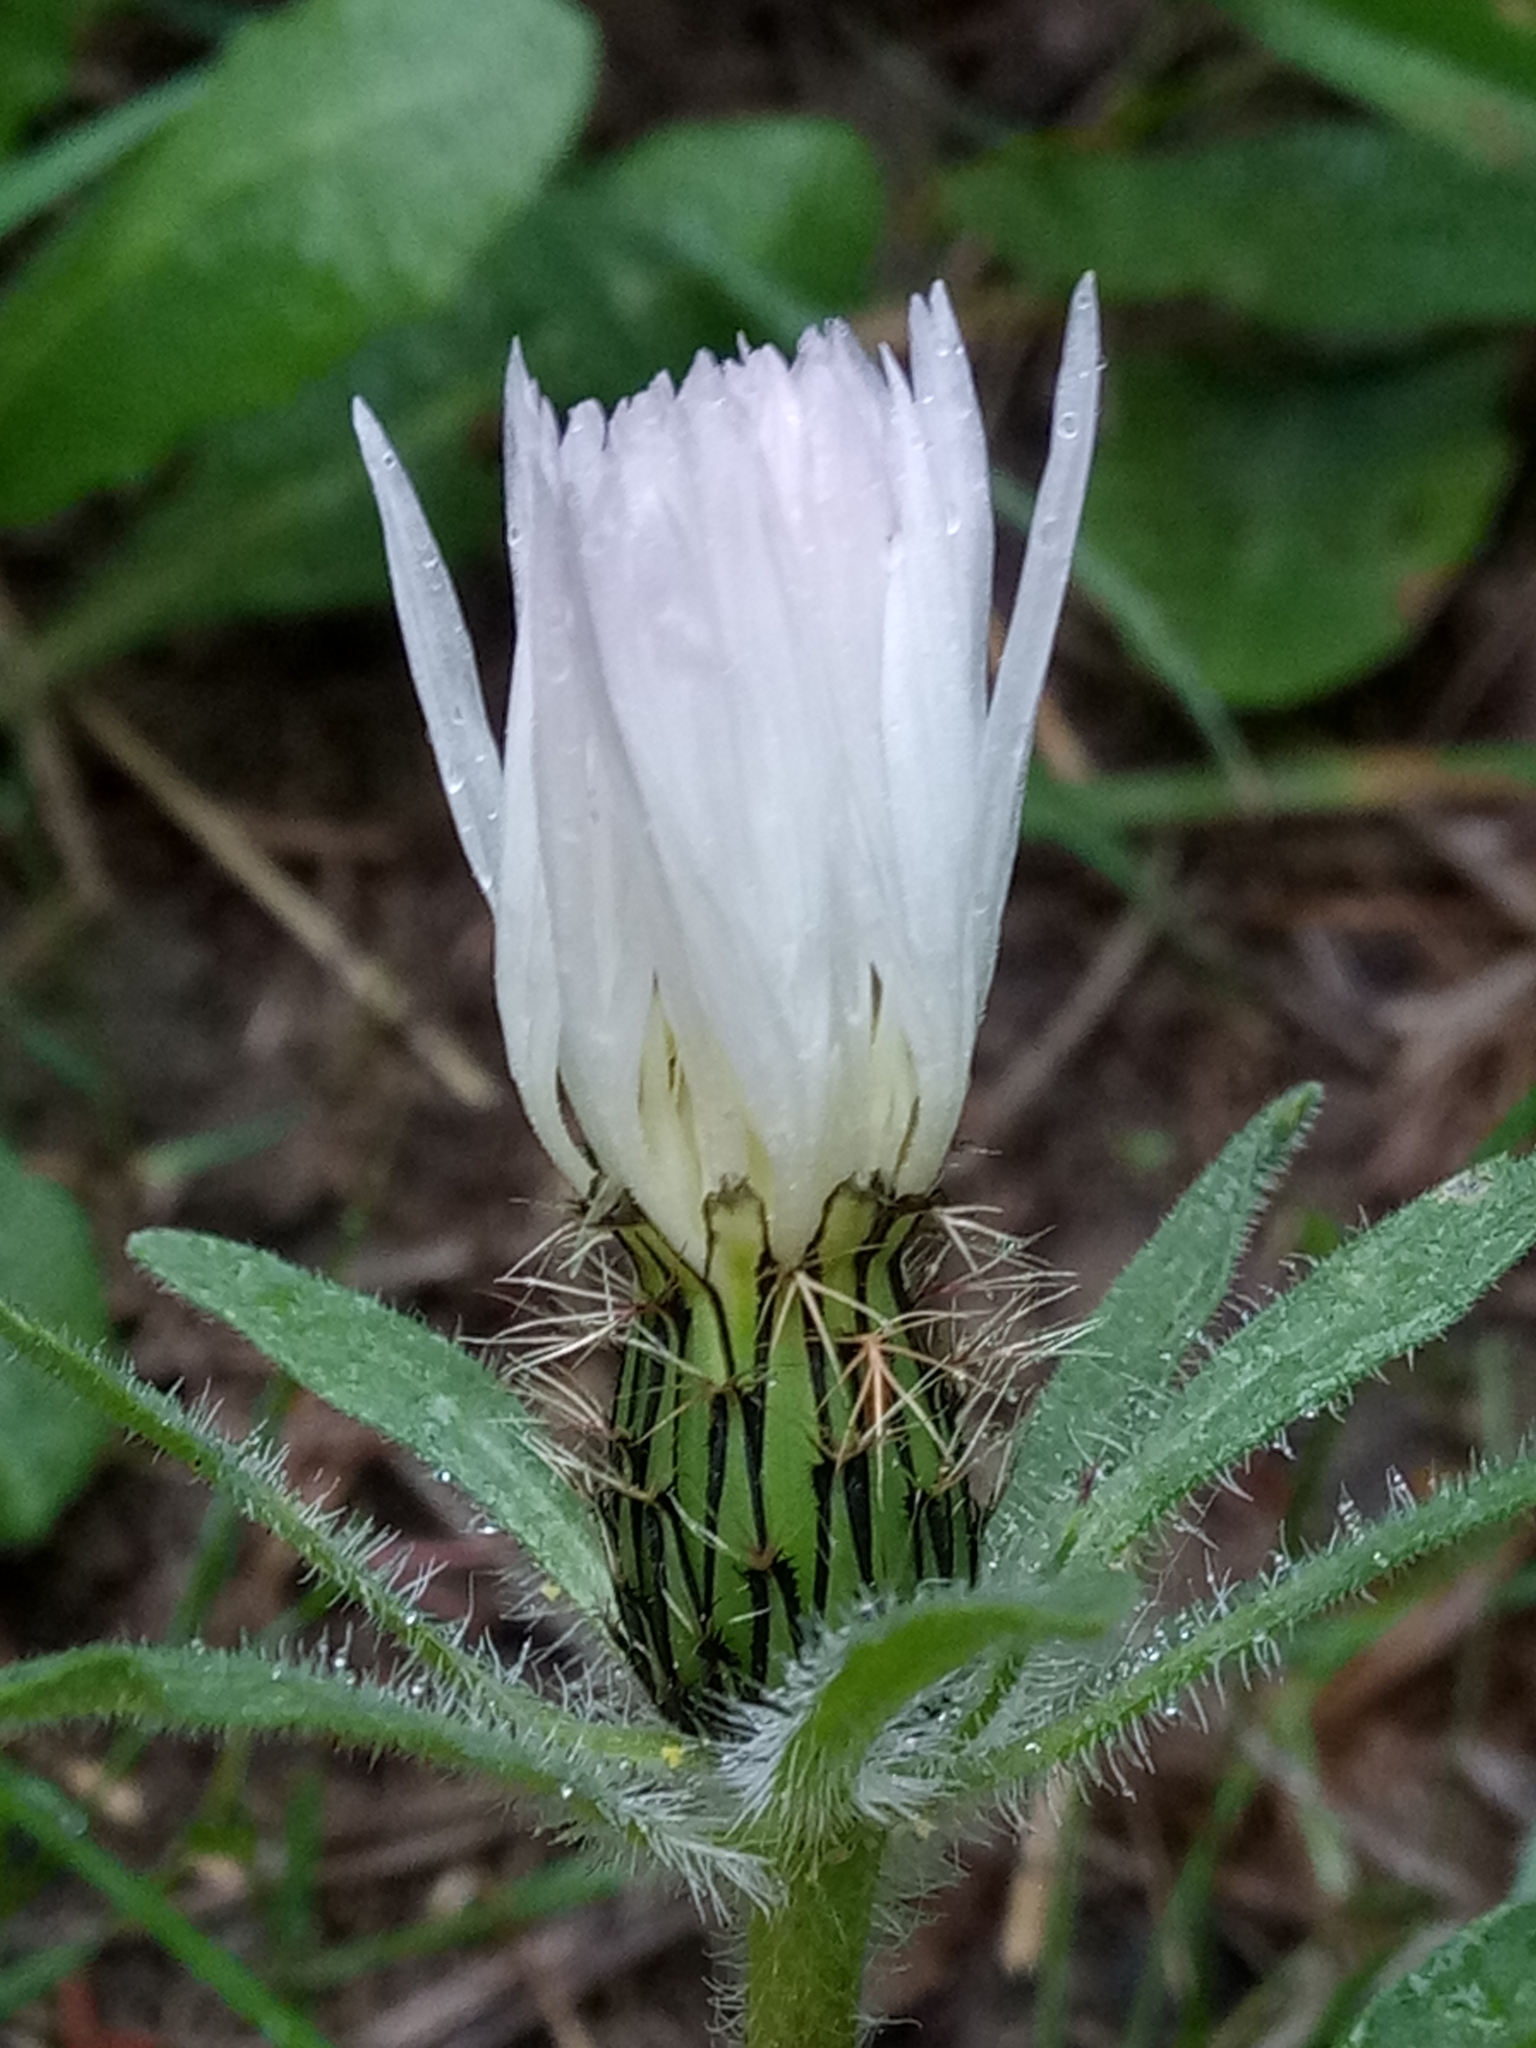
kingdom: Plantae
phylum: Tracheophyta
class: Magnoliopsida
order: Asterales
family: Asteraceae
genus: Centaurea
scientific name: Centaurea pullata
